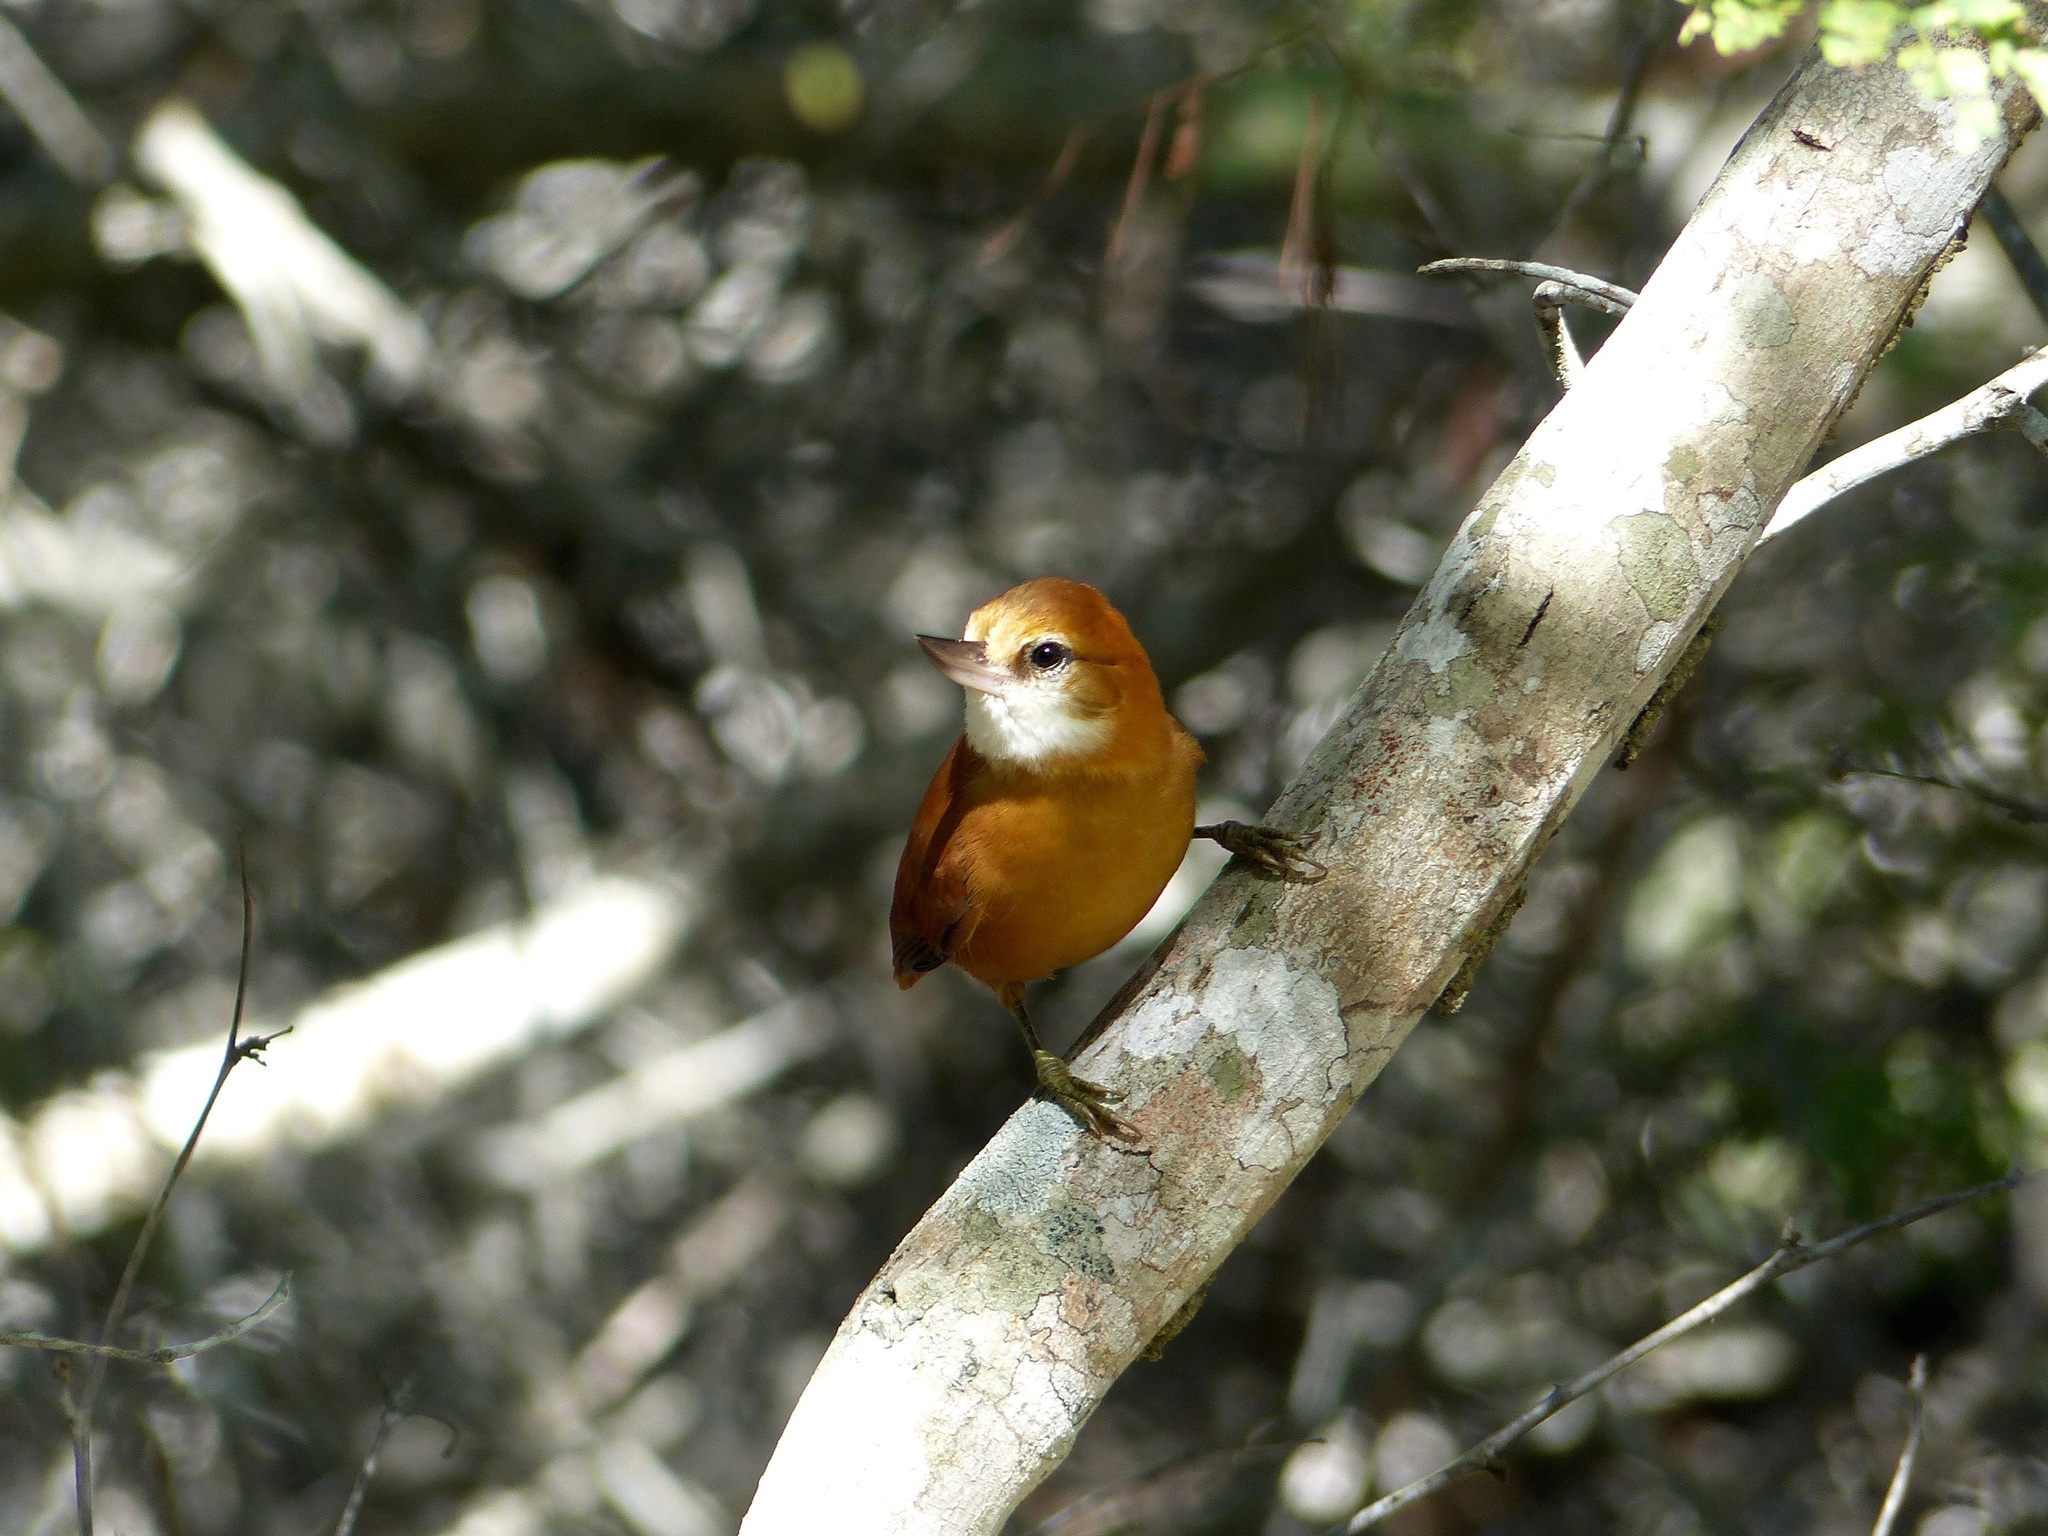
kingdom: Animalia
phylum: Chordata
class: Aves
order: Passeriformes
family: Furnariidae
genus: Megaxenops
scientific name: Megaxenops parnaguae
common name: Great xenops
